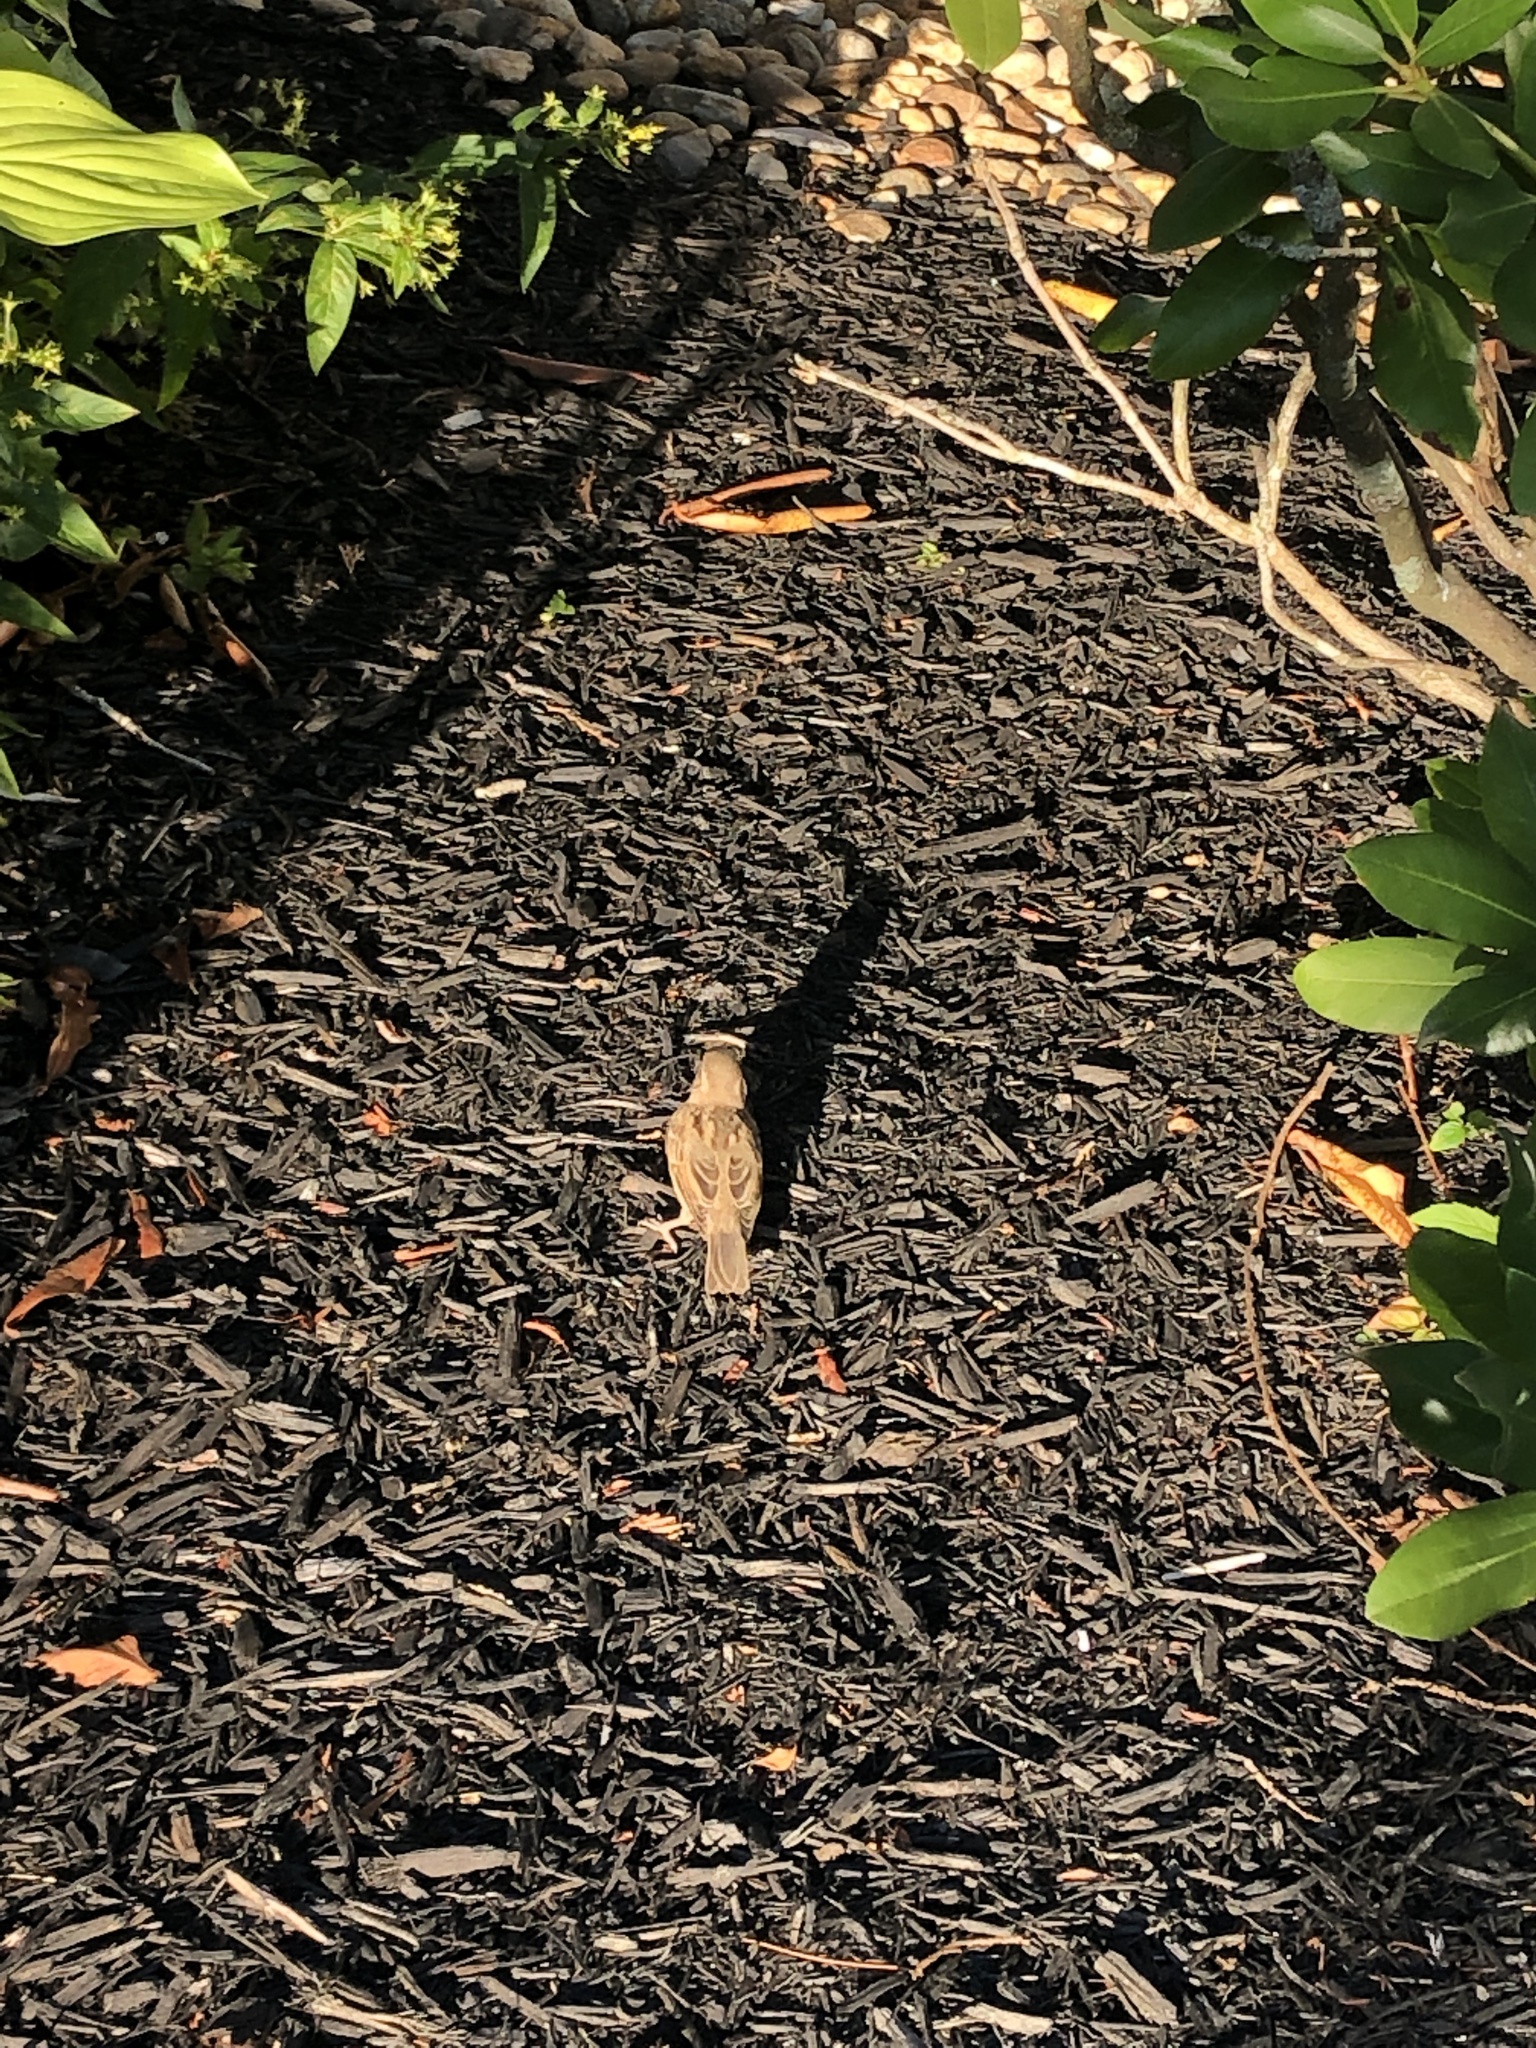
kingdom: Animalia
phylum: Chordata
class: Aves
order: Passeriformes
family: Passeridae
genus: Passer
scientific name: Passer domesticus
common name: House sparrow
